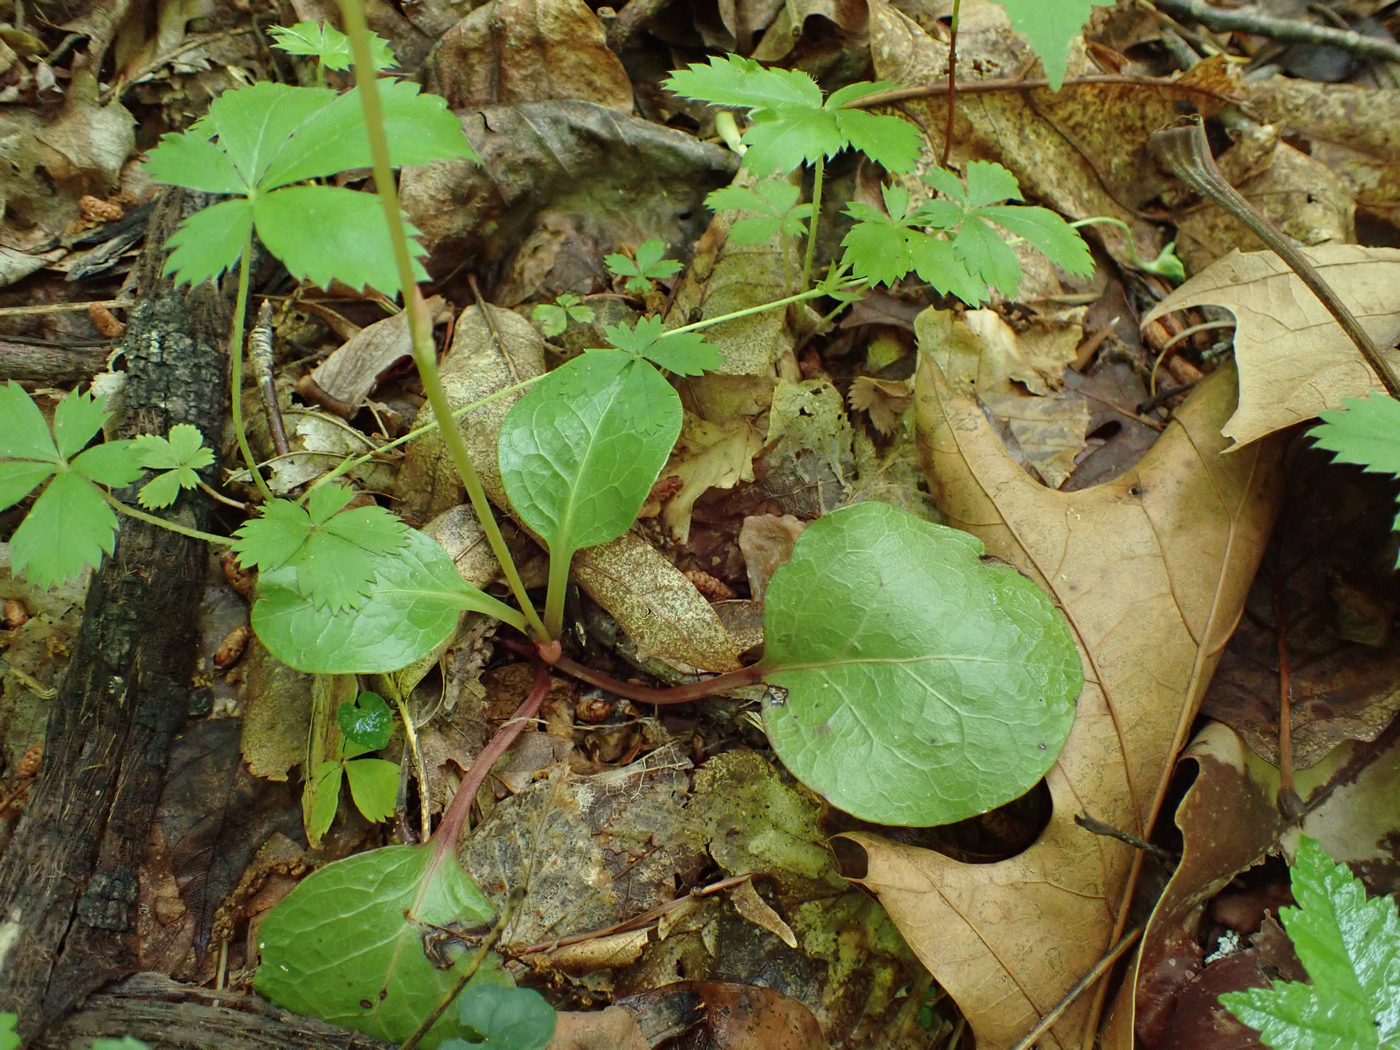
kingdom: Plantae
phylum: Tracheophyta
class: Magnoliopsida
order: Ericales
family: Ericaceae
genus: Pyrola
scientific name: Pyrola americana
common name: American wintergreen
